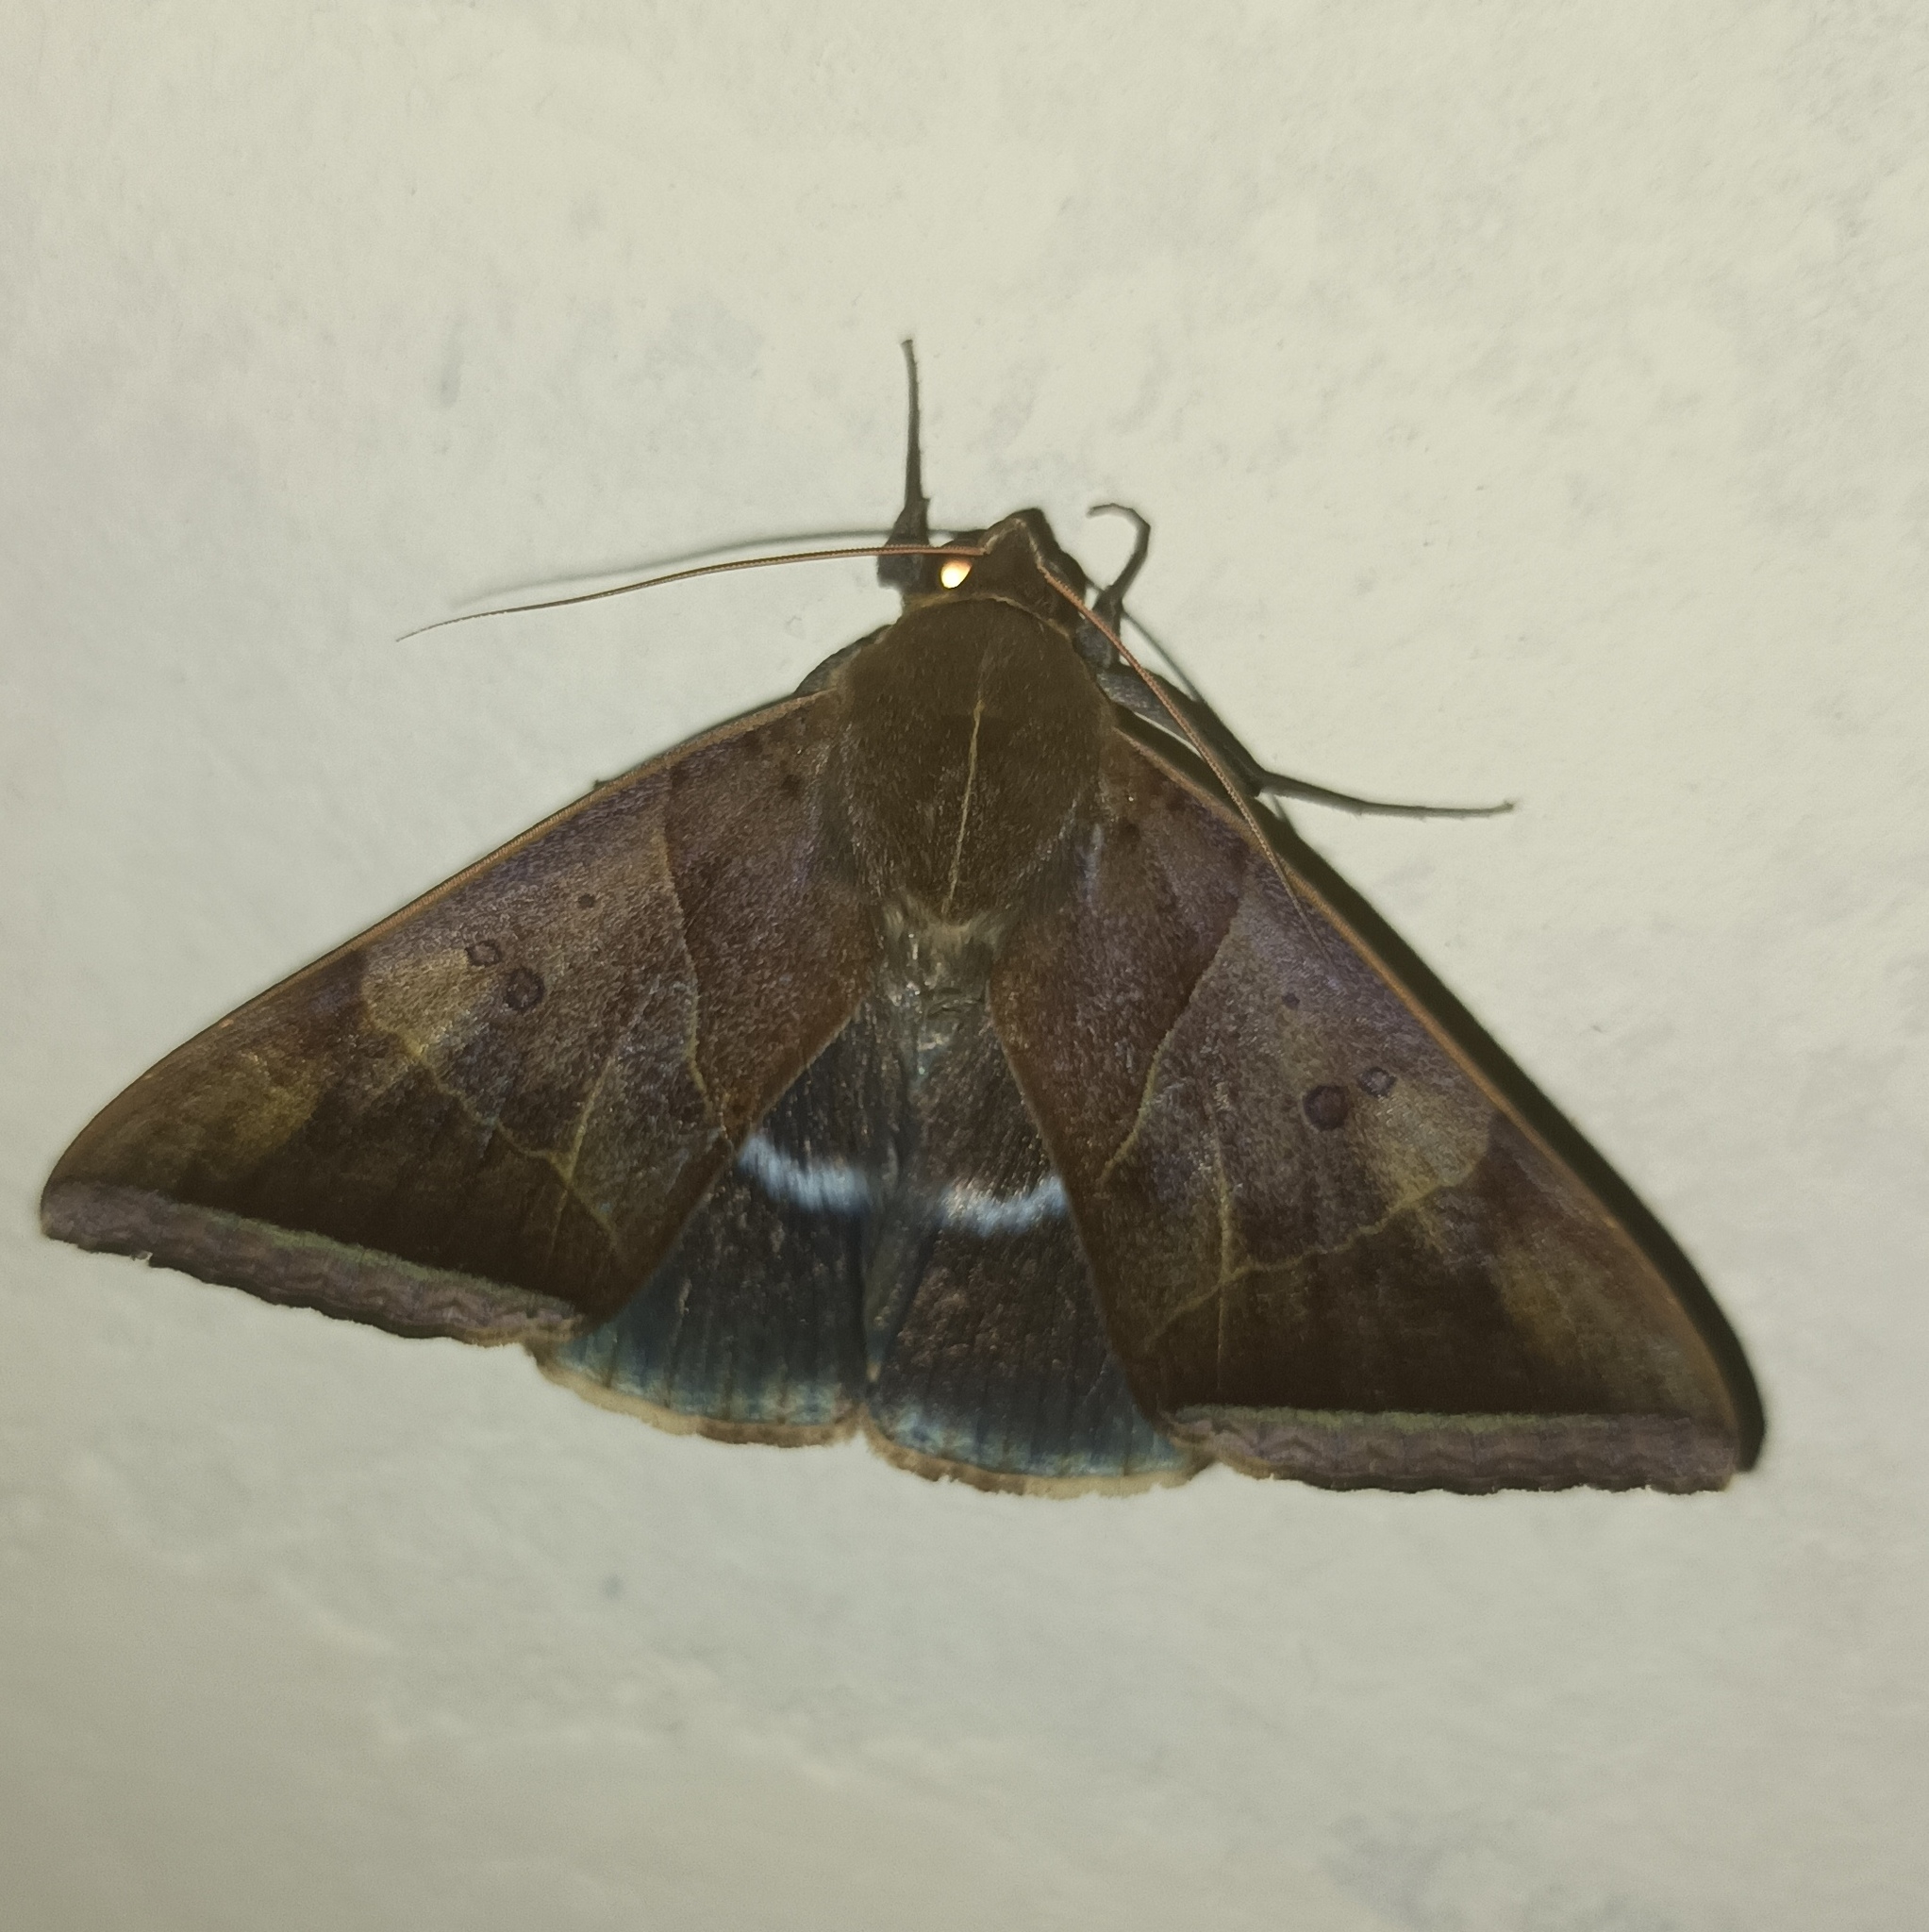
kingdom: Animalia
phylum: Arthropoda
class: Insecta
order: Lepidoptera
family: Erebidae
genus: Artena
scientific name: Artena dotata
